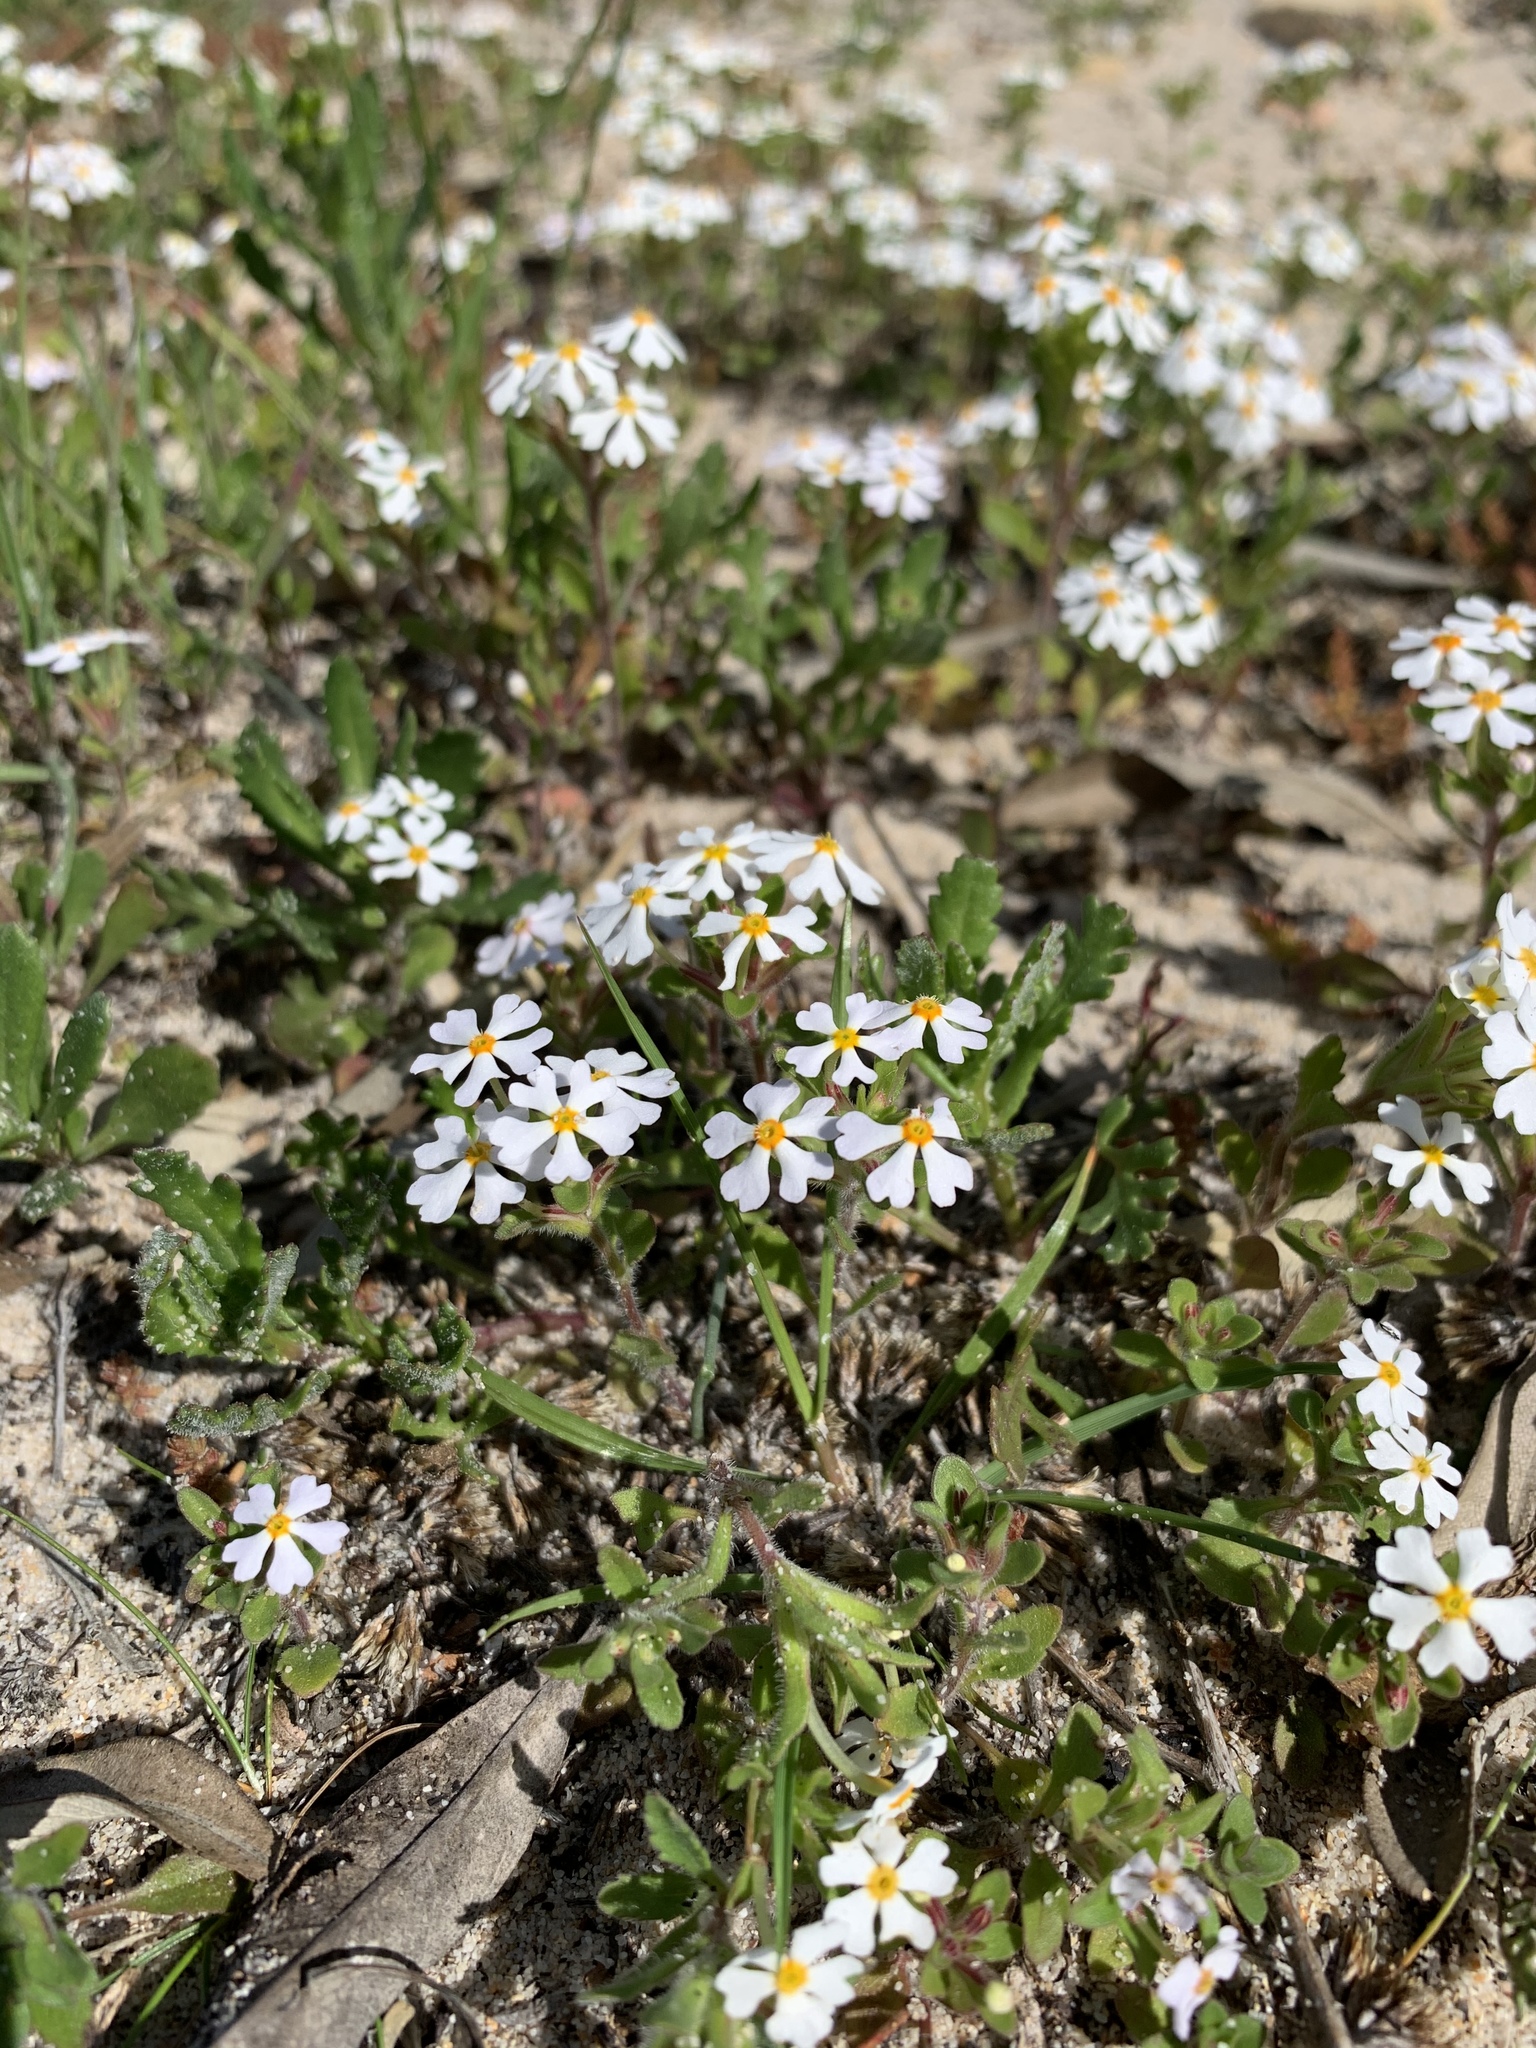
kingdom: Plantae
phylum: Tracheophyta
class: Magnoliopsida
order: Lamiales
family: Scrophulariaceae
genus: Zaluzianskya
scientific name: Zaluzianskya villosa
